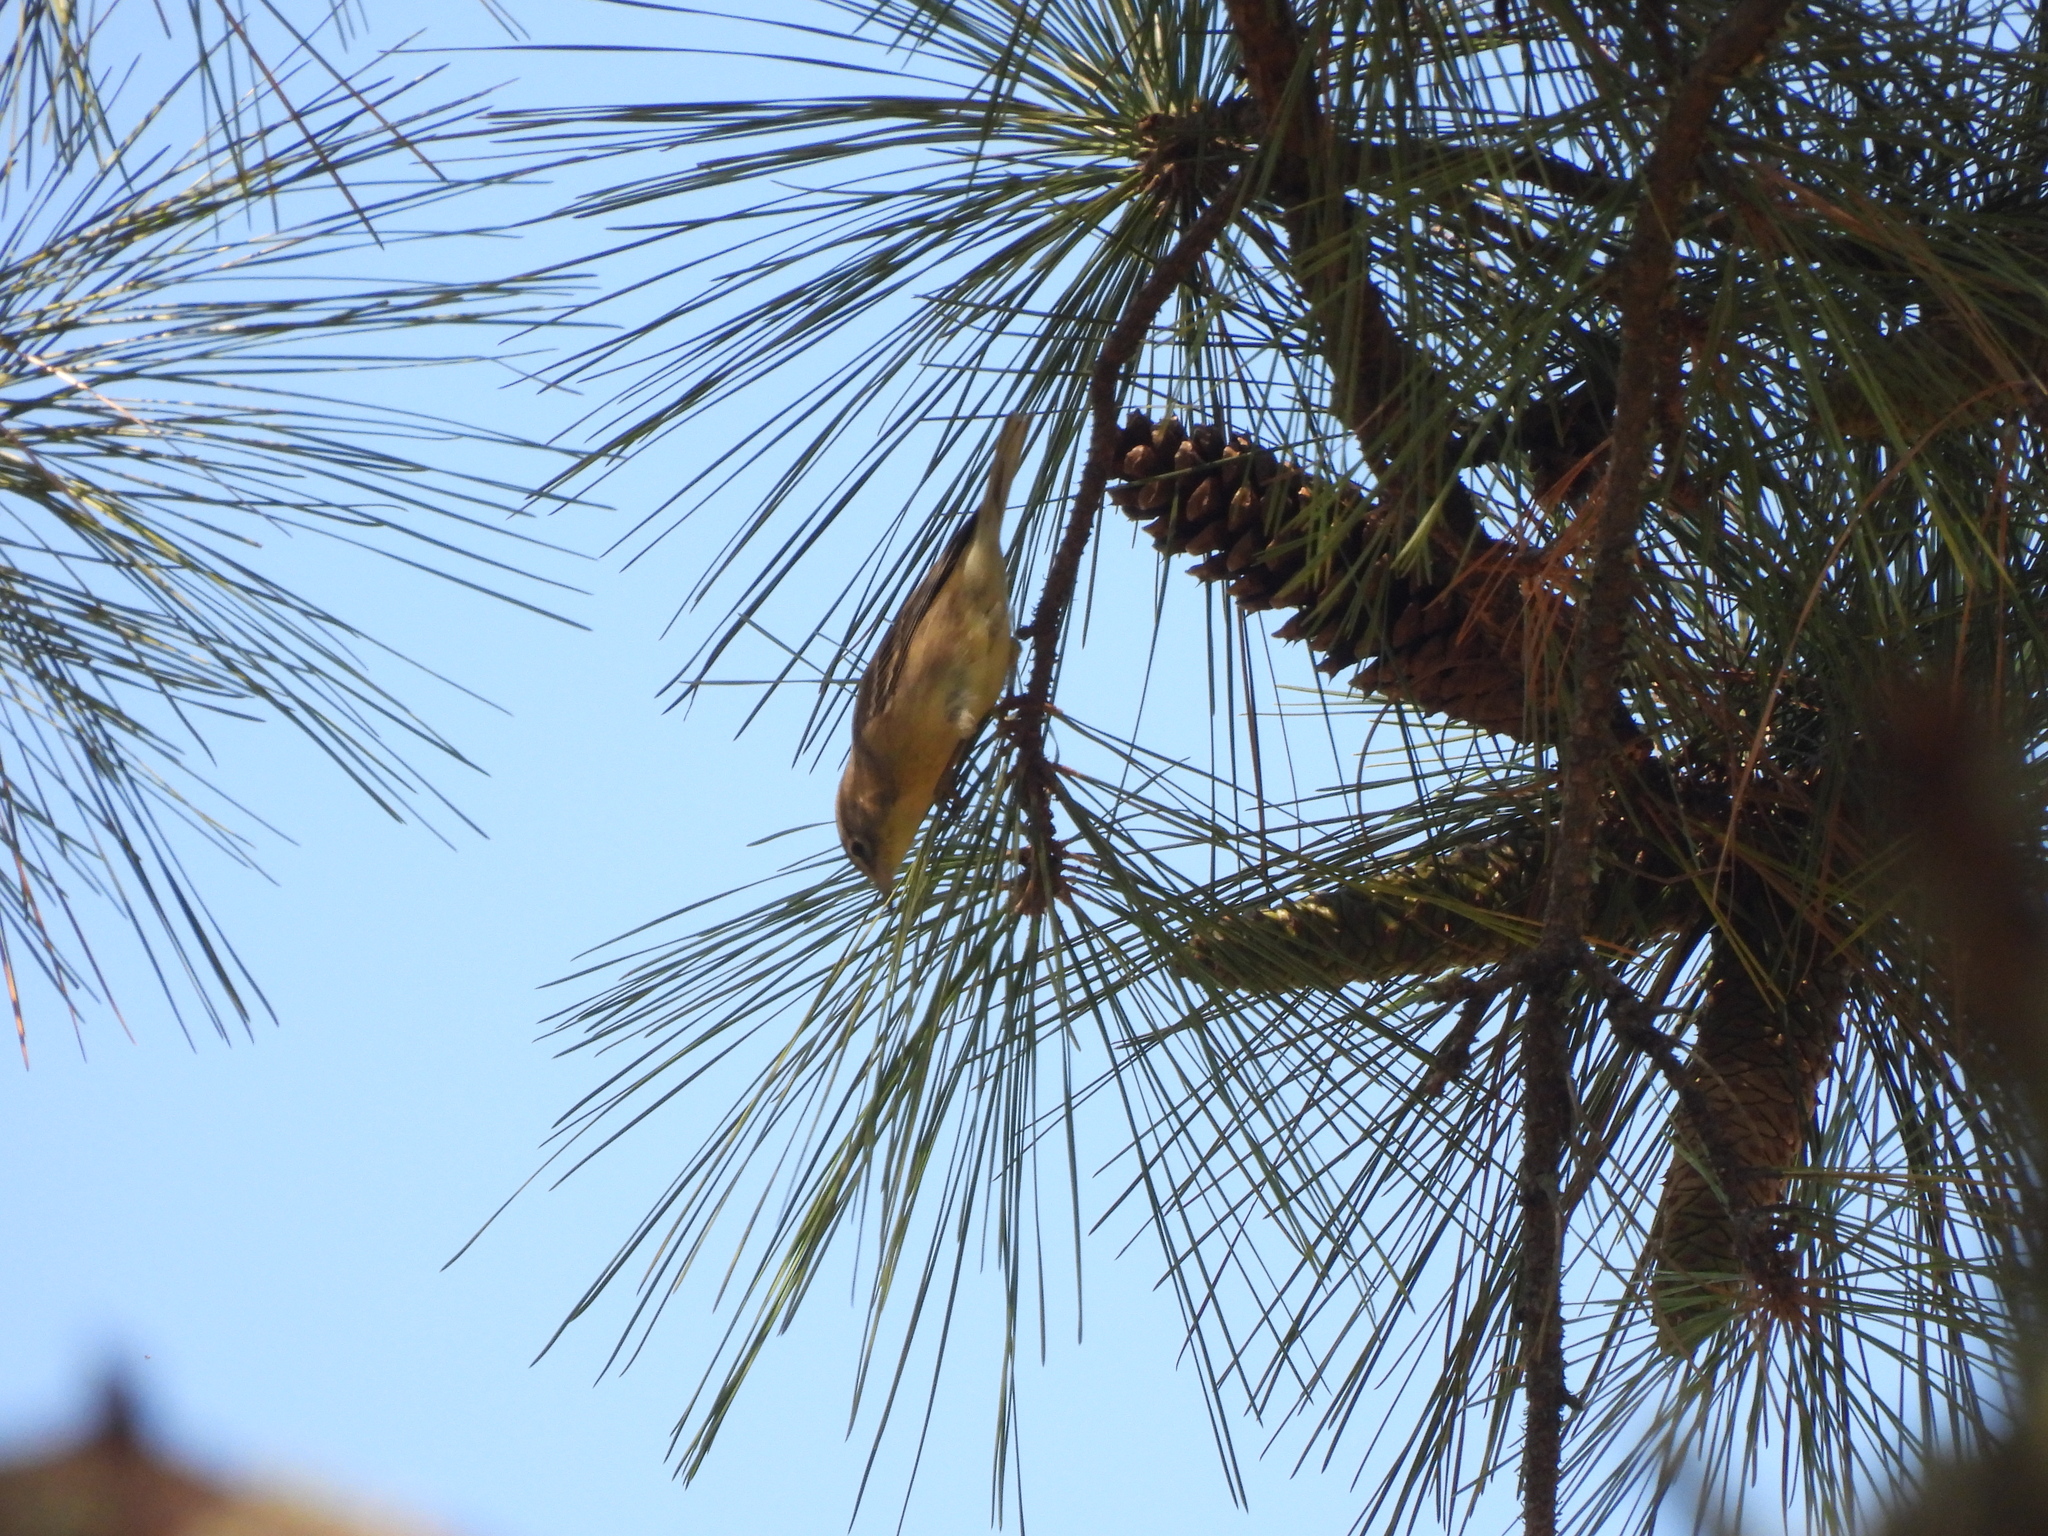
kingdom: Animalia
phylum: Chordata
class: Aves
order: Passeriformes
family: Parulidae
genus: Setophaga
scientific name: Setophaga pinus
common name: Pine warbler
